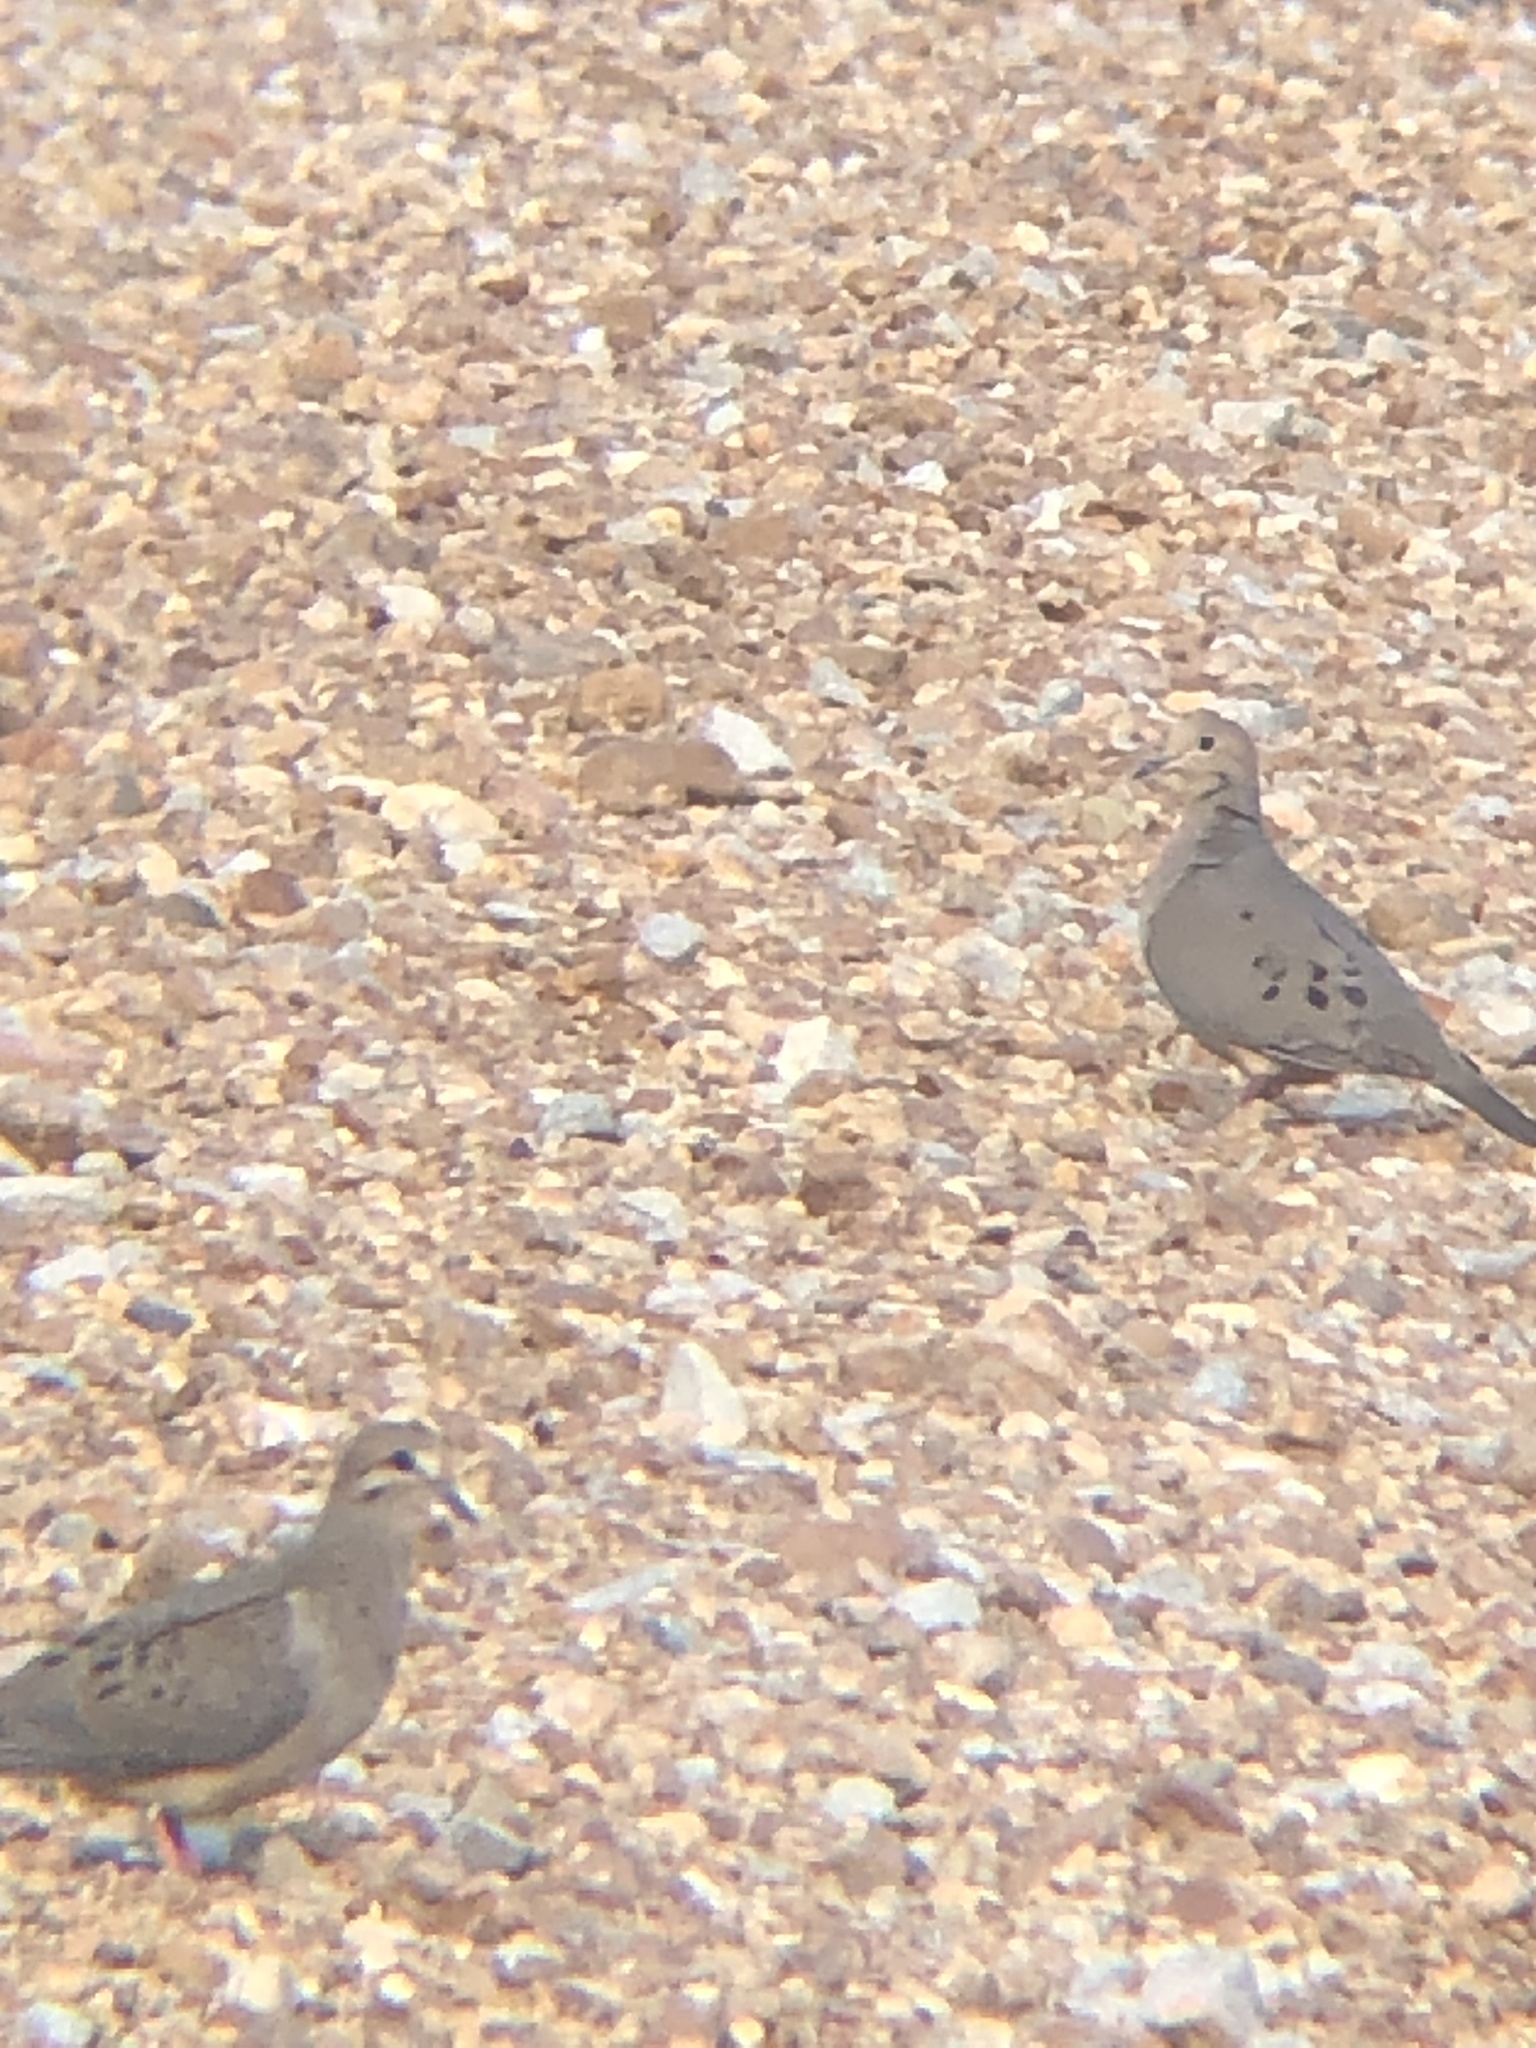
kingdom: Animalia
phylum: Chordata
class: Aves
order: Columbiformes
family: Columbidae
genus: Zenaida
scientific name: Zenaida macroura
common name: Mourning dove
